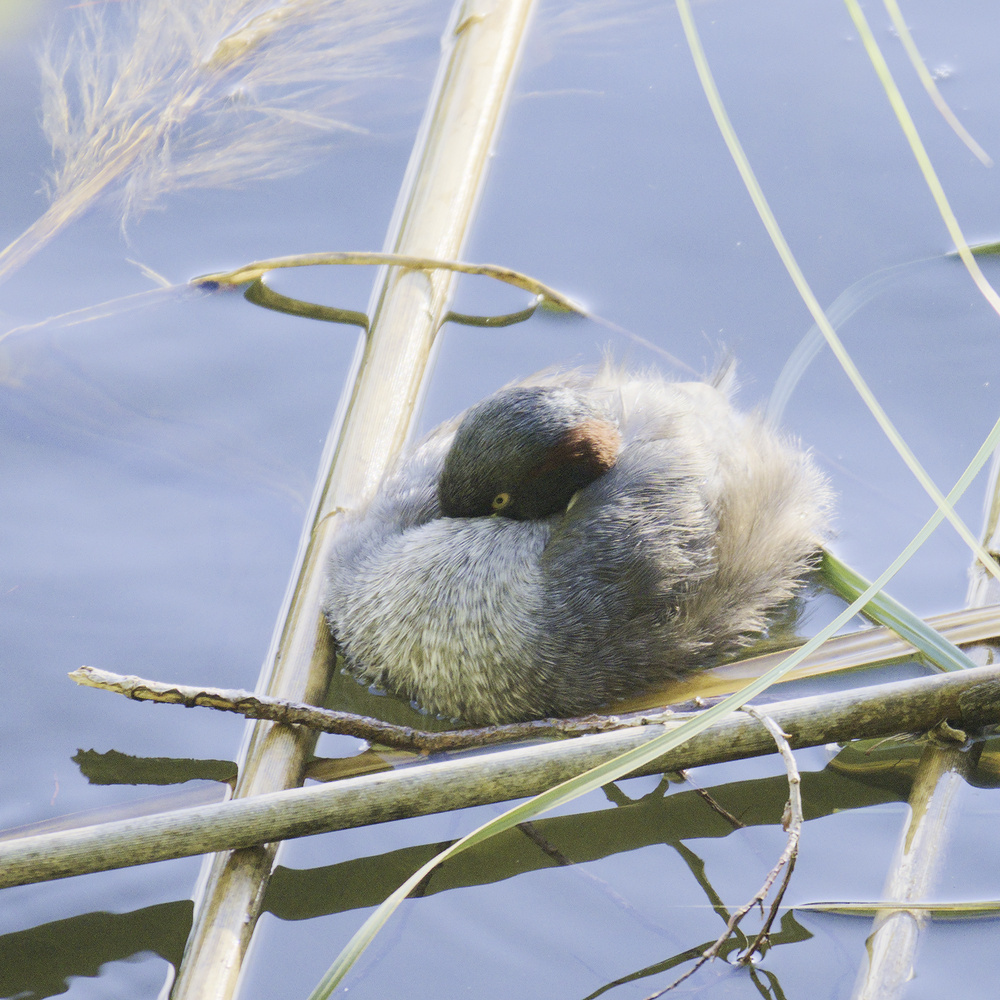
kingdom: Animalia
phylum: Chordata
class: Aves
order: Podicipediformes
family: Podicipedidae
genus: Tachybaptus
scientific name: Tachybaptus novaehollandiae
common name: Australasian grebe
